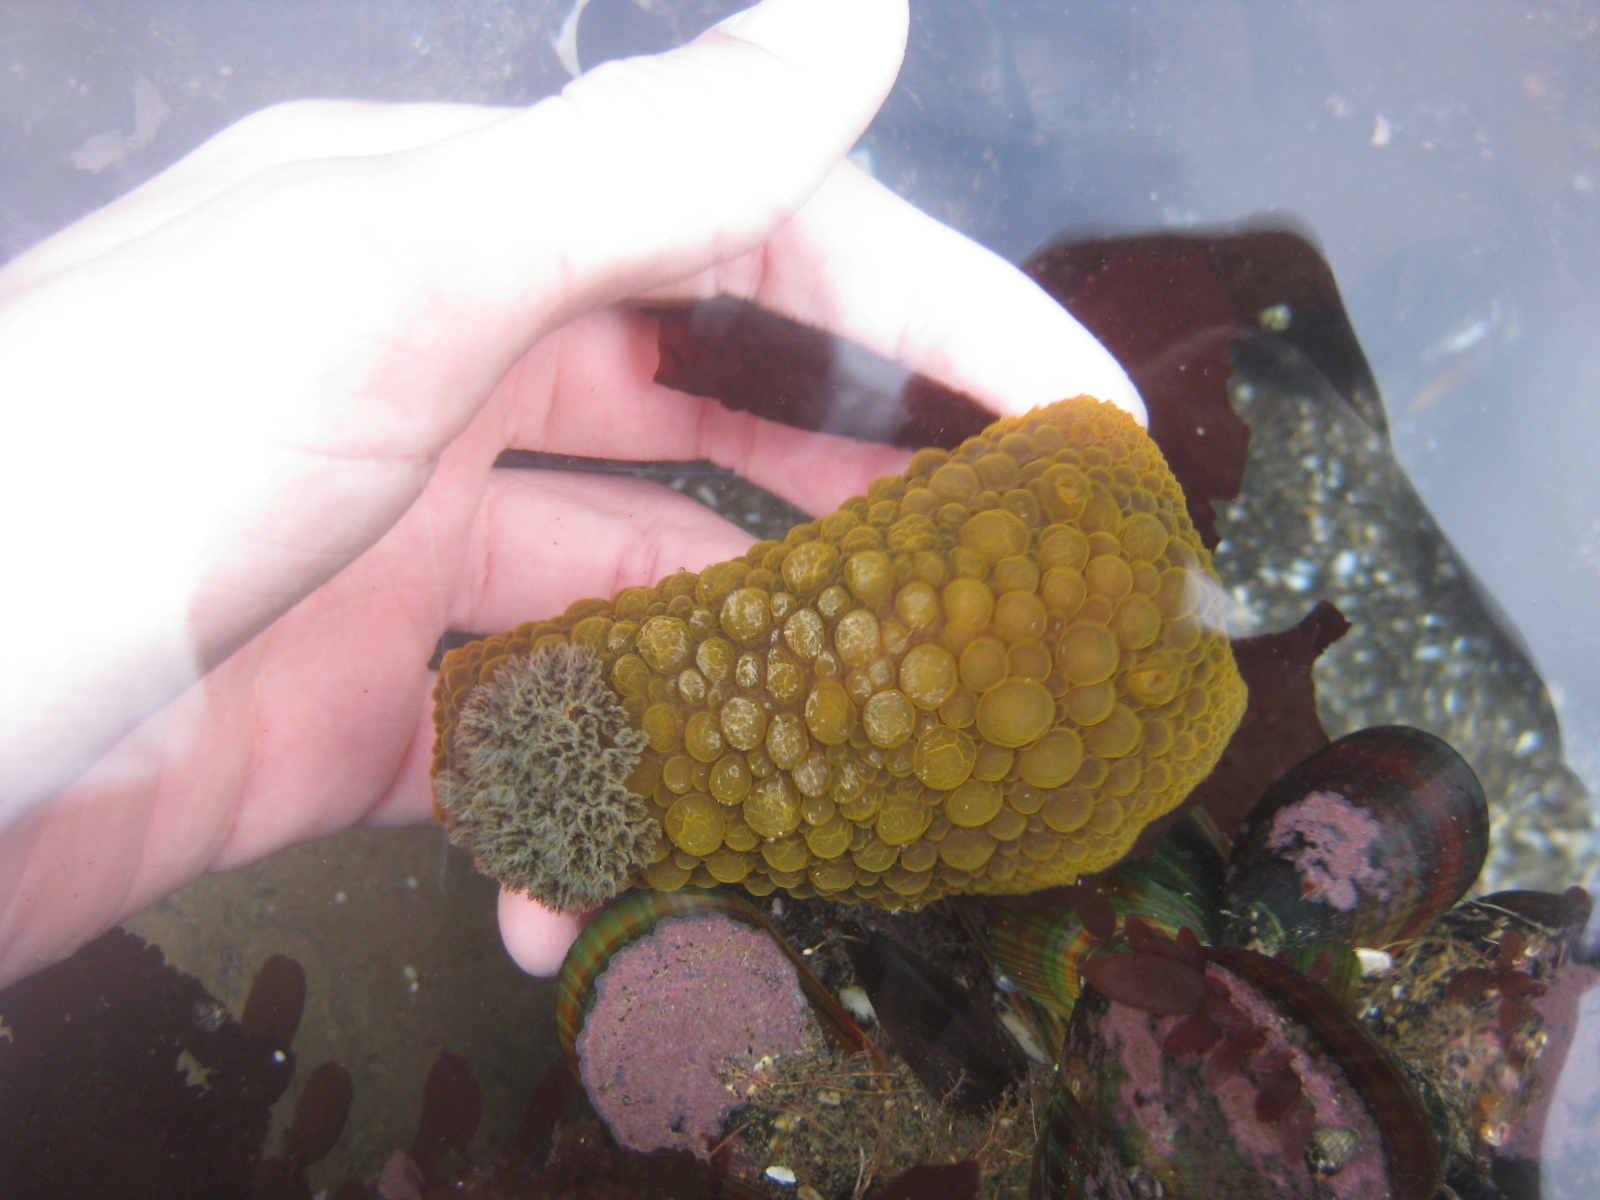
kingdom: Animalia
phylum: Mollusca
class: Gastropoda
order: Nudibranchia
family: Dorididae
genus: Doris
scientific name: Doris wellingtonensis
